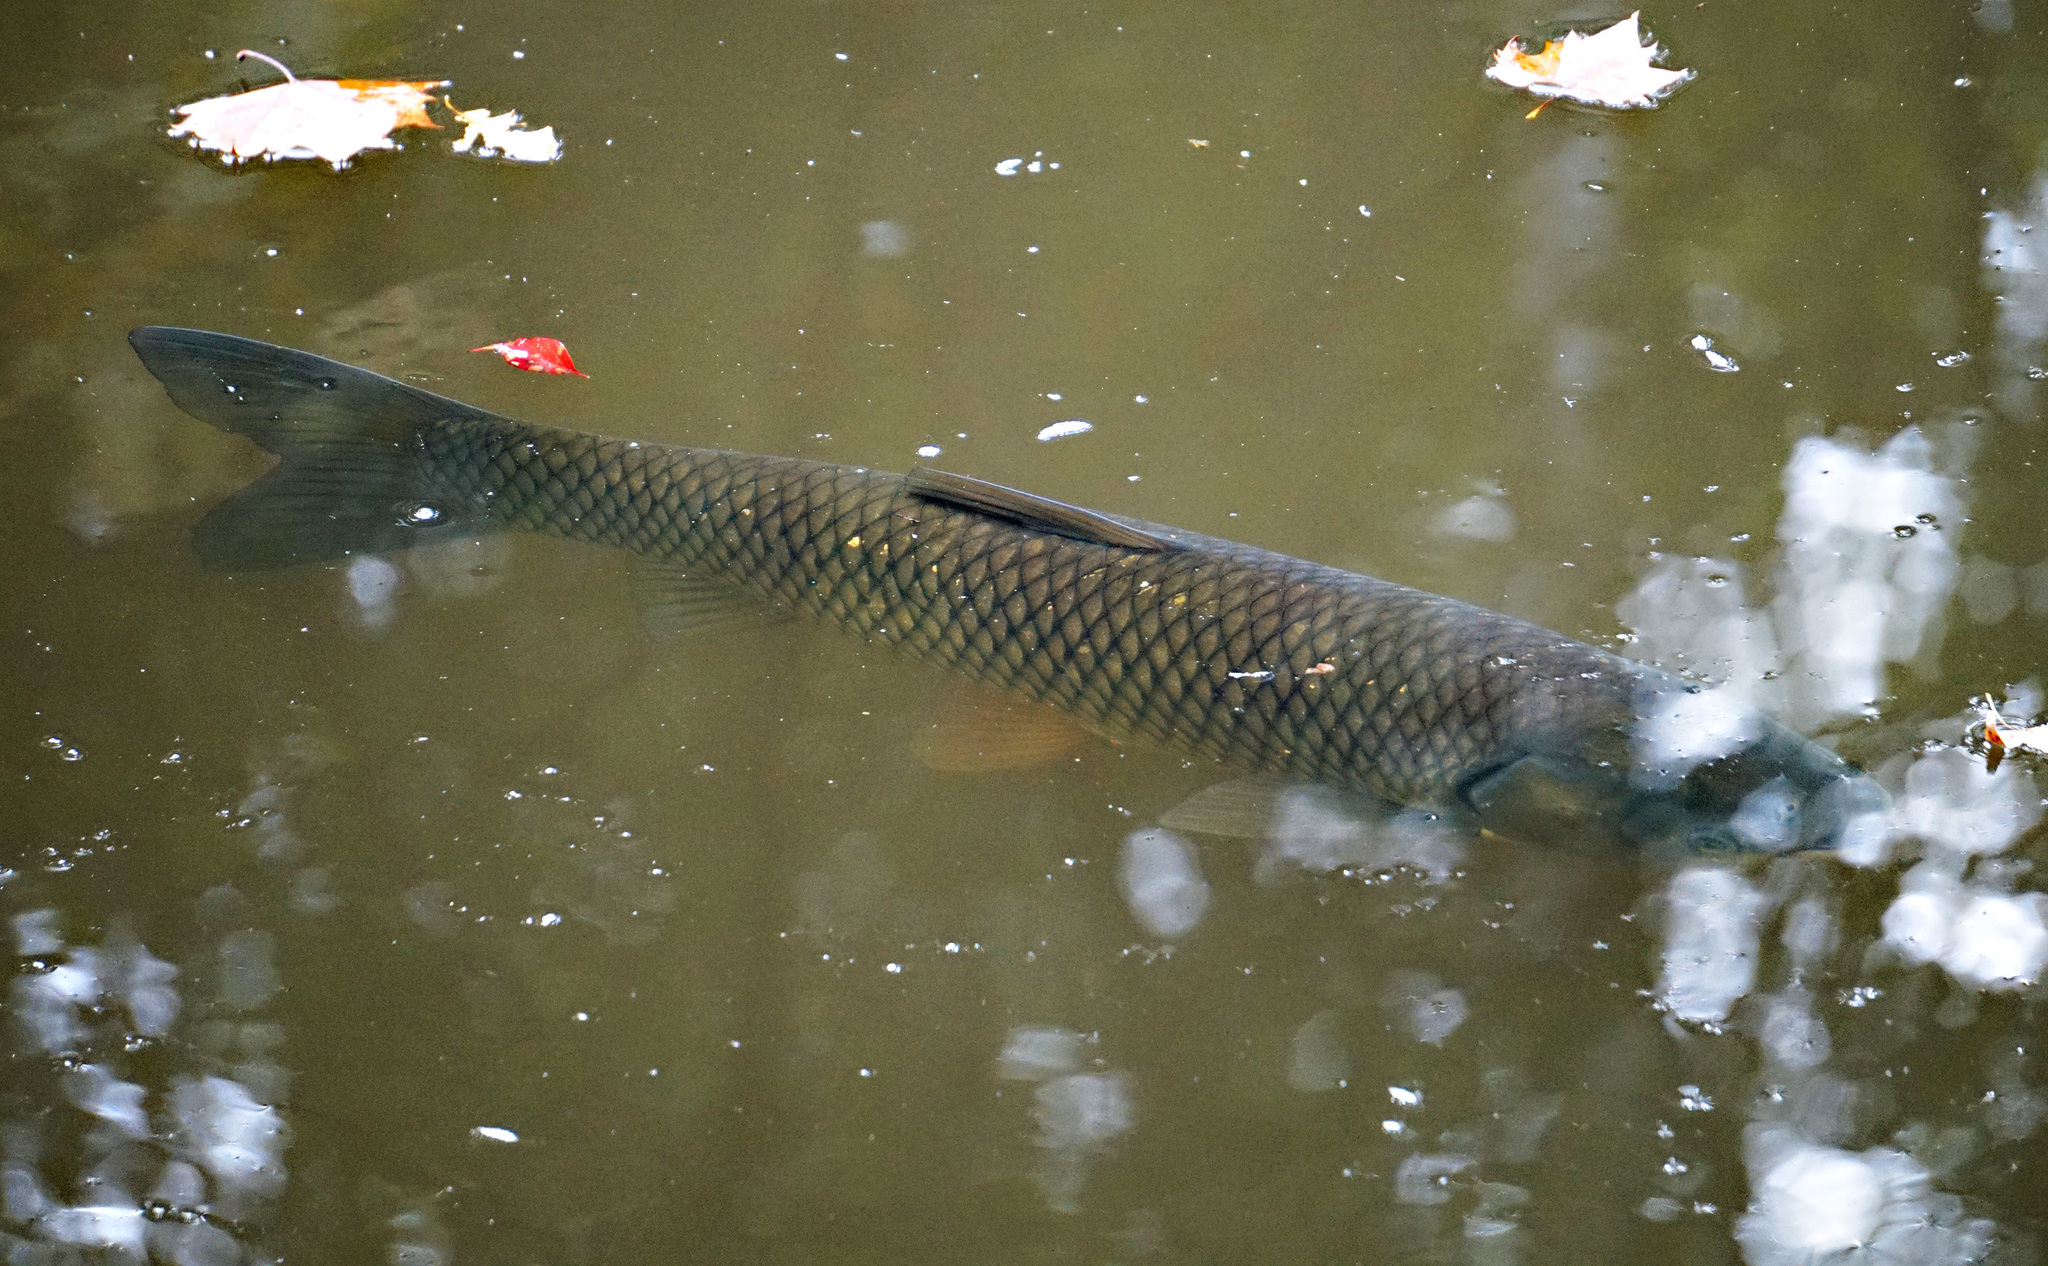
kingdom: Animalia
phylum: Chordata
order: Cypriniformes
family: Cyprinidae
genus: Ctenopharyngodon
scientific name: Ctenopharyngodon idella
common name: Grass carp
